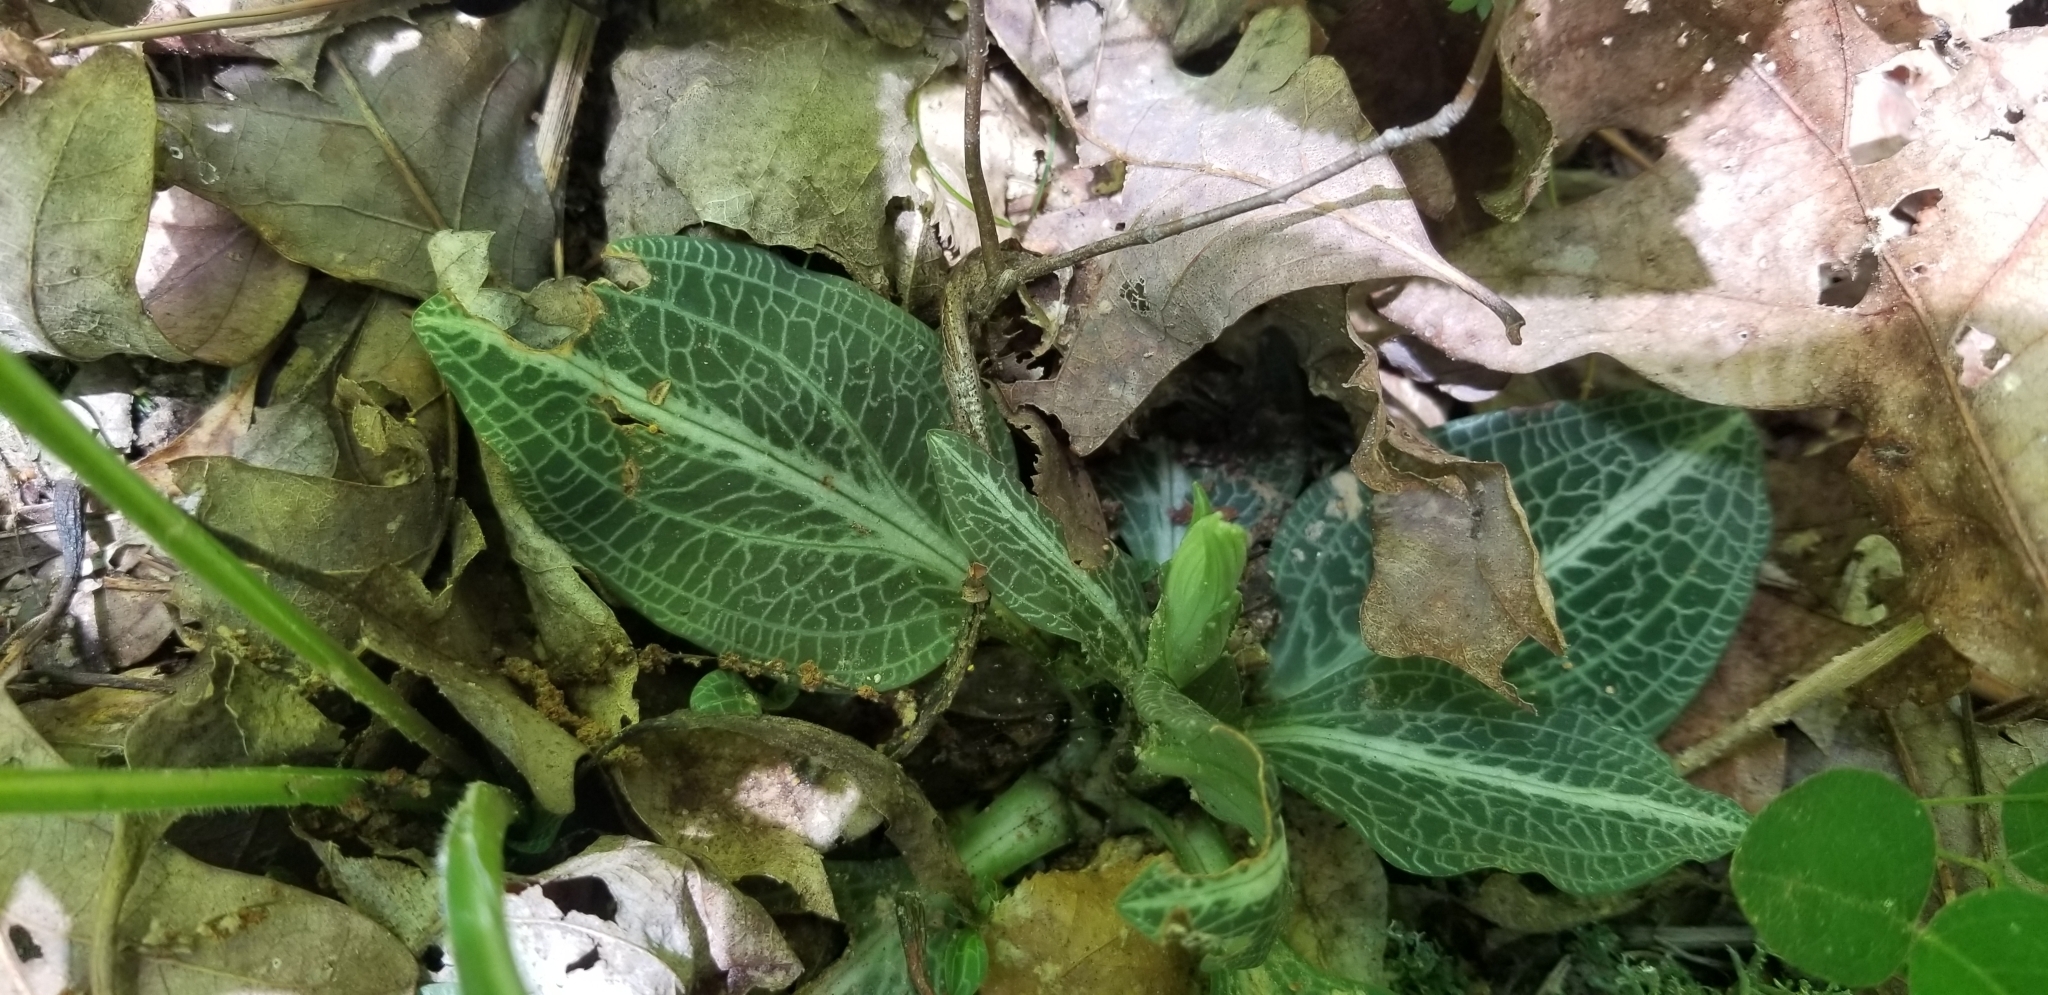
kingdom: Plantae
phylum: Tracheophyta
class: Liliopsida
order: Asparagales
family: Orchidaceae
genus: Goodyera
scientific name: Goodyera pubescens
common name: Downy rattlesnake-plantain
